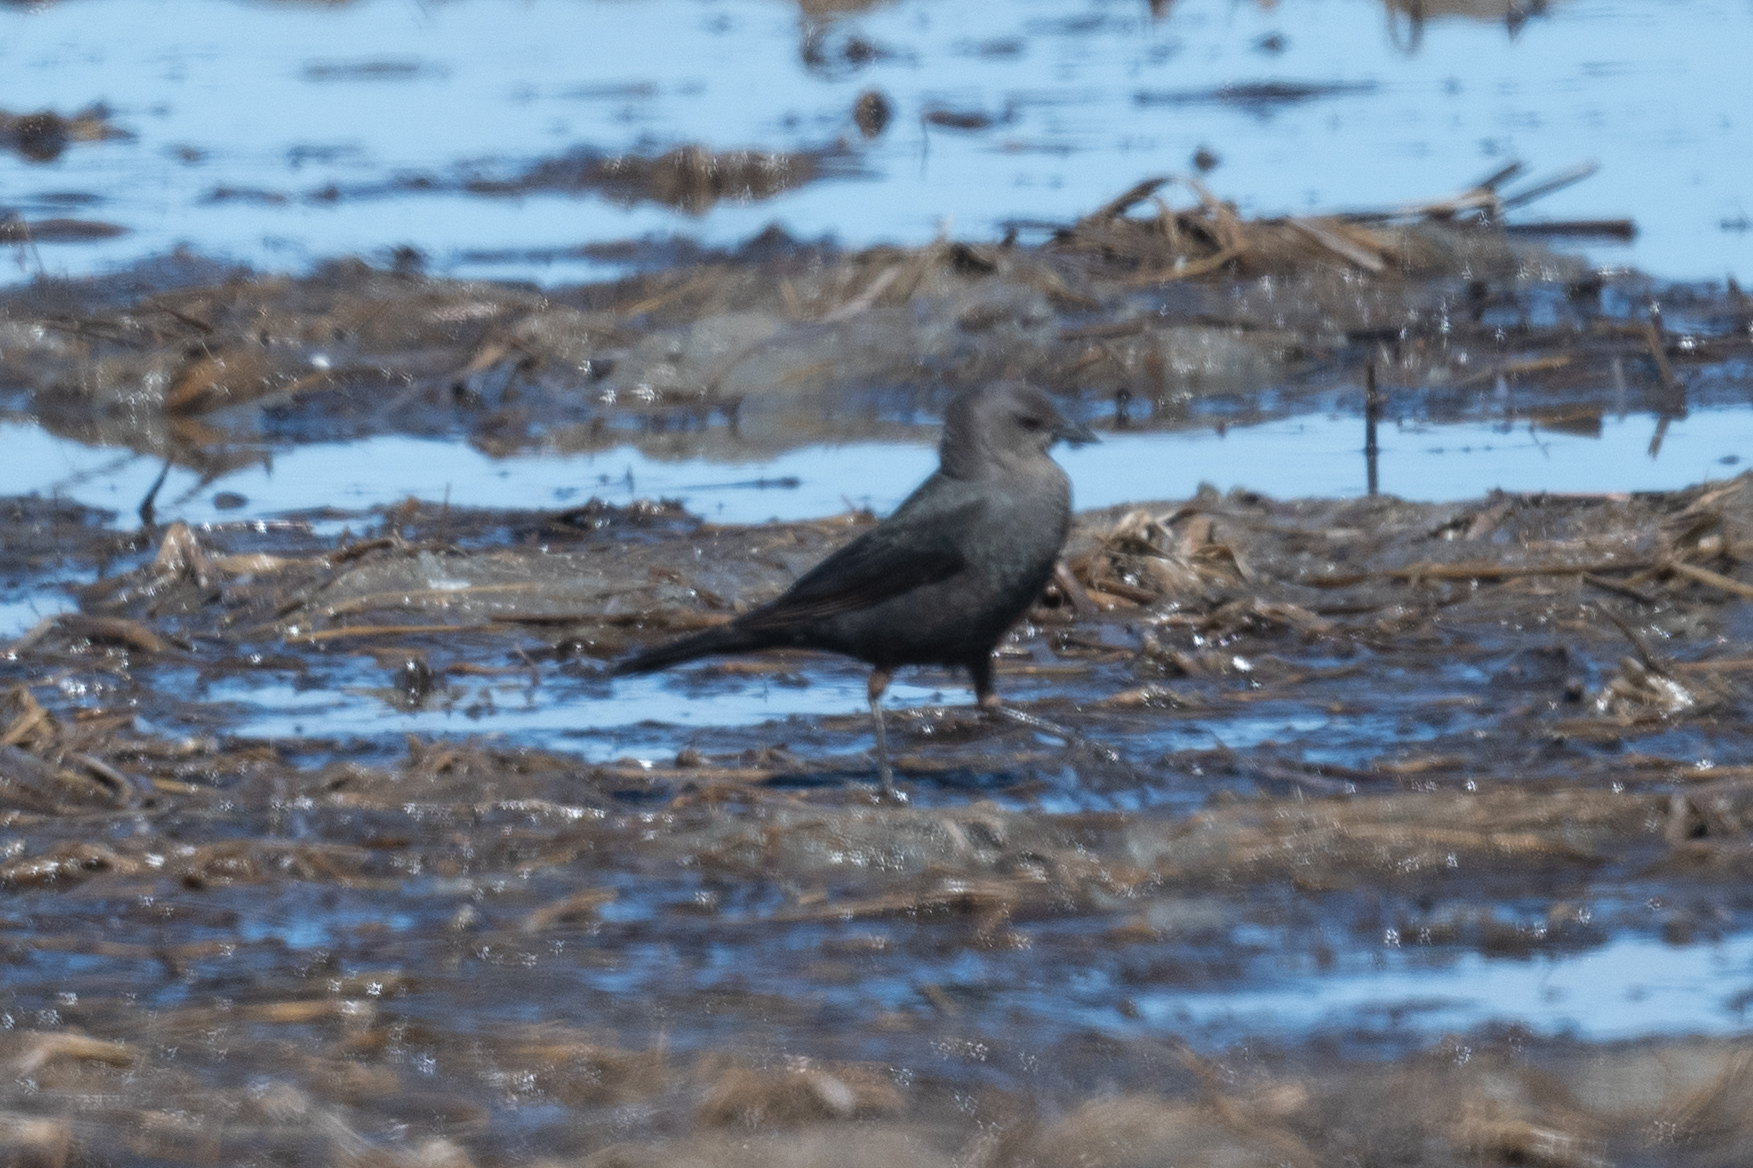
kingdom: Animalia
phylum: Chordata
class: Aves
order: Passeriformes
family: Icteridae
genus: Euphagus
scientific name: Euphagus cyanocephalus
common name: Brewer's blackbird
